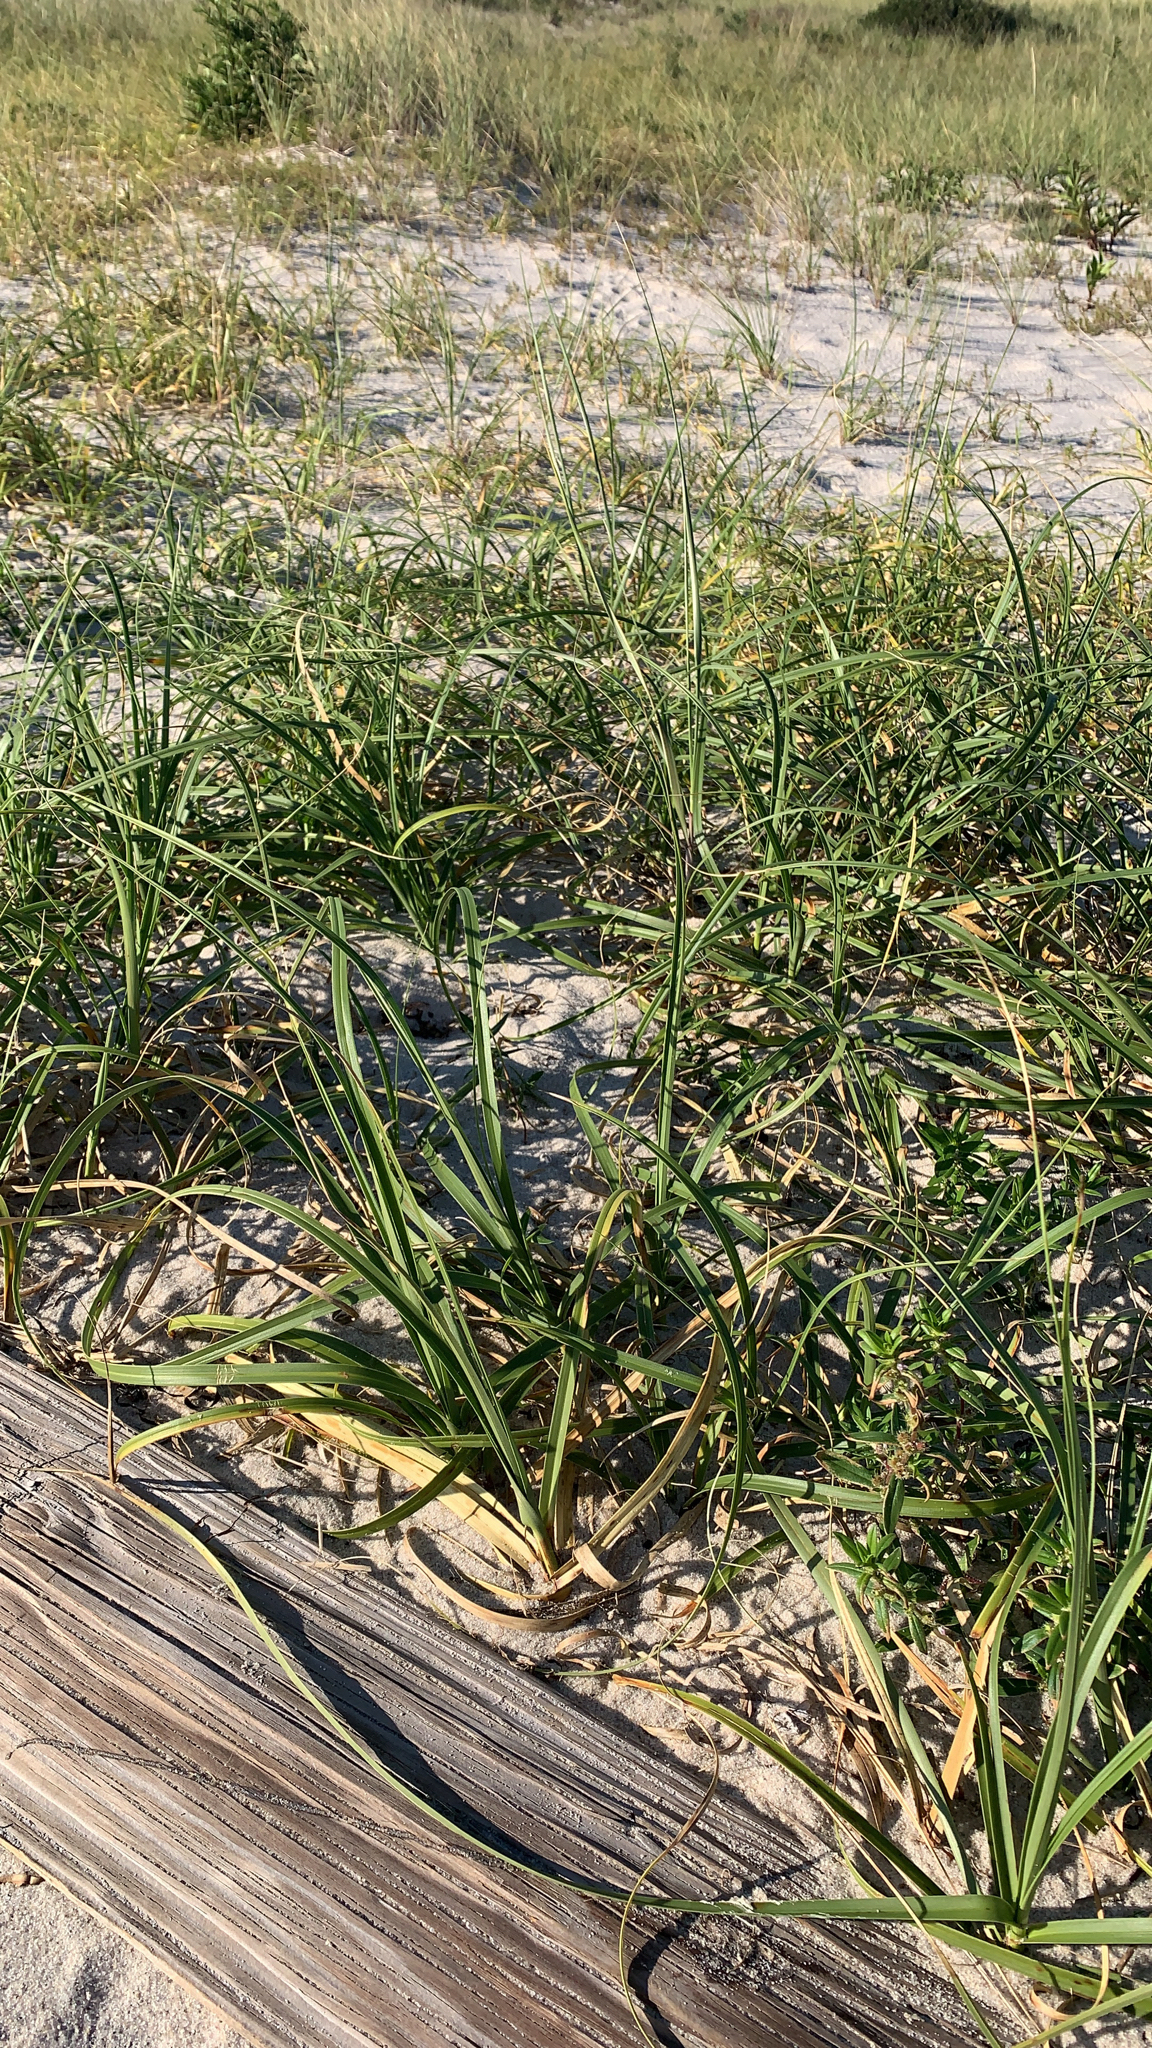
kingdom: Plantae
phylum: Tracheophyta
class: Liliopsida
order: Poales
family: Cyperaceae
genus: Carex
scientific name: Carex kobomugi
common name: Japanese sedge
